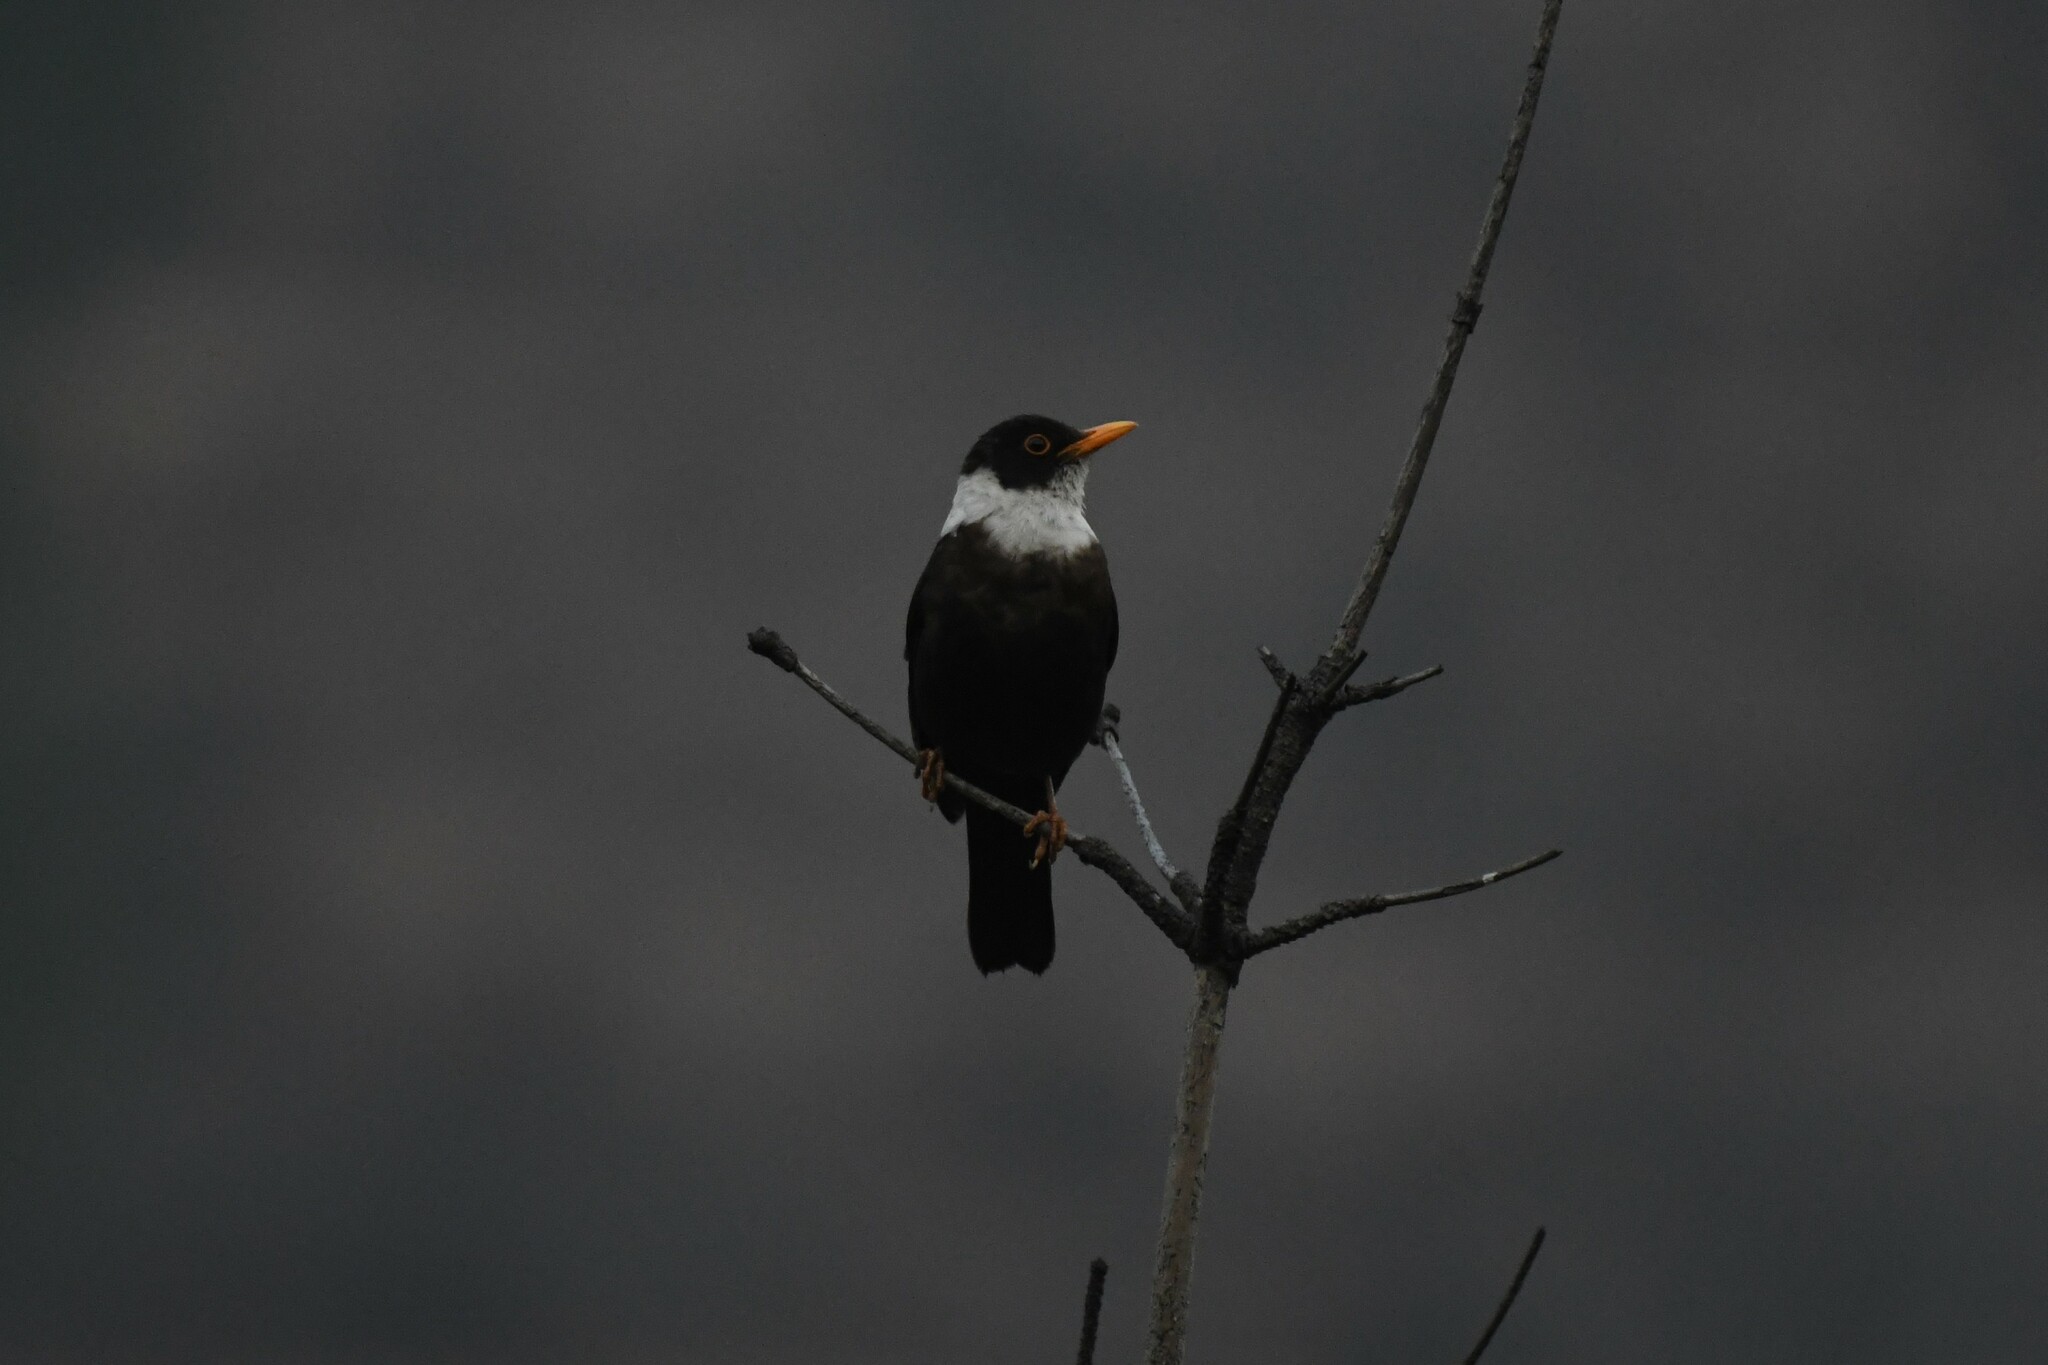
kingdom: Animalia
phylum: Chordata
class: Aves
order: Passeriformes
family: Turdidae
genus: Turdus
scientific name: Turdus albocinctus
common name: White-collared blackbird
